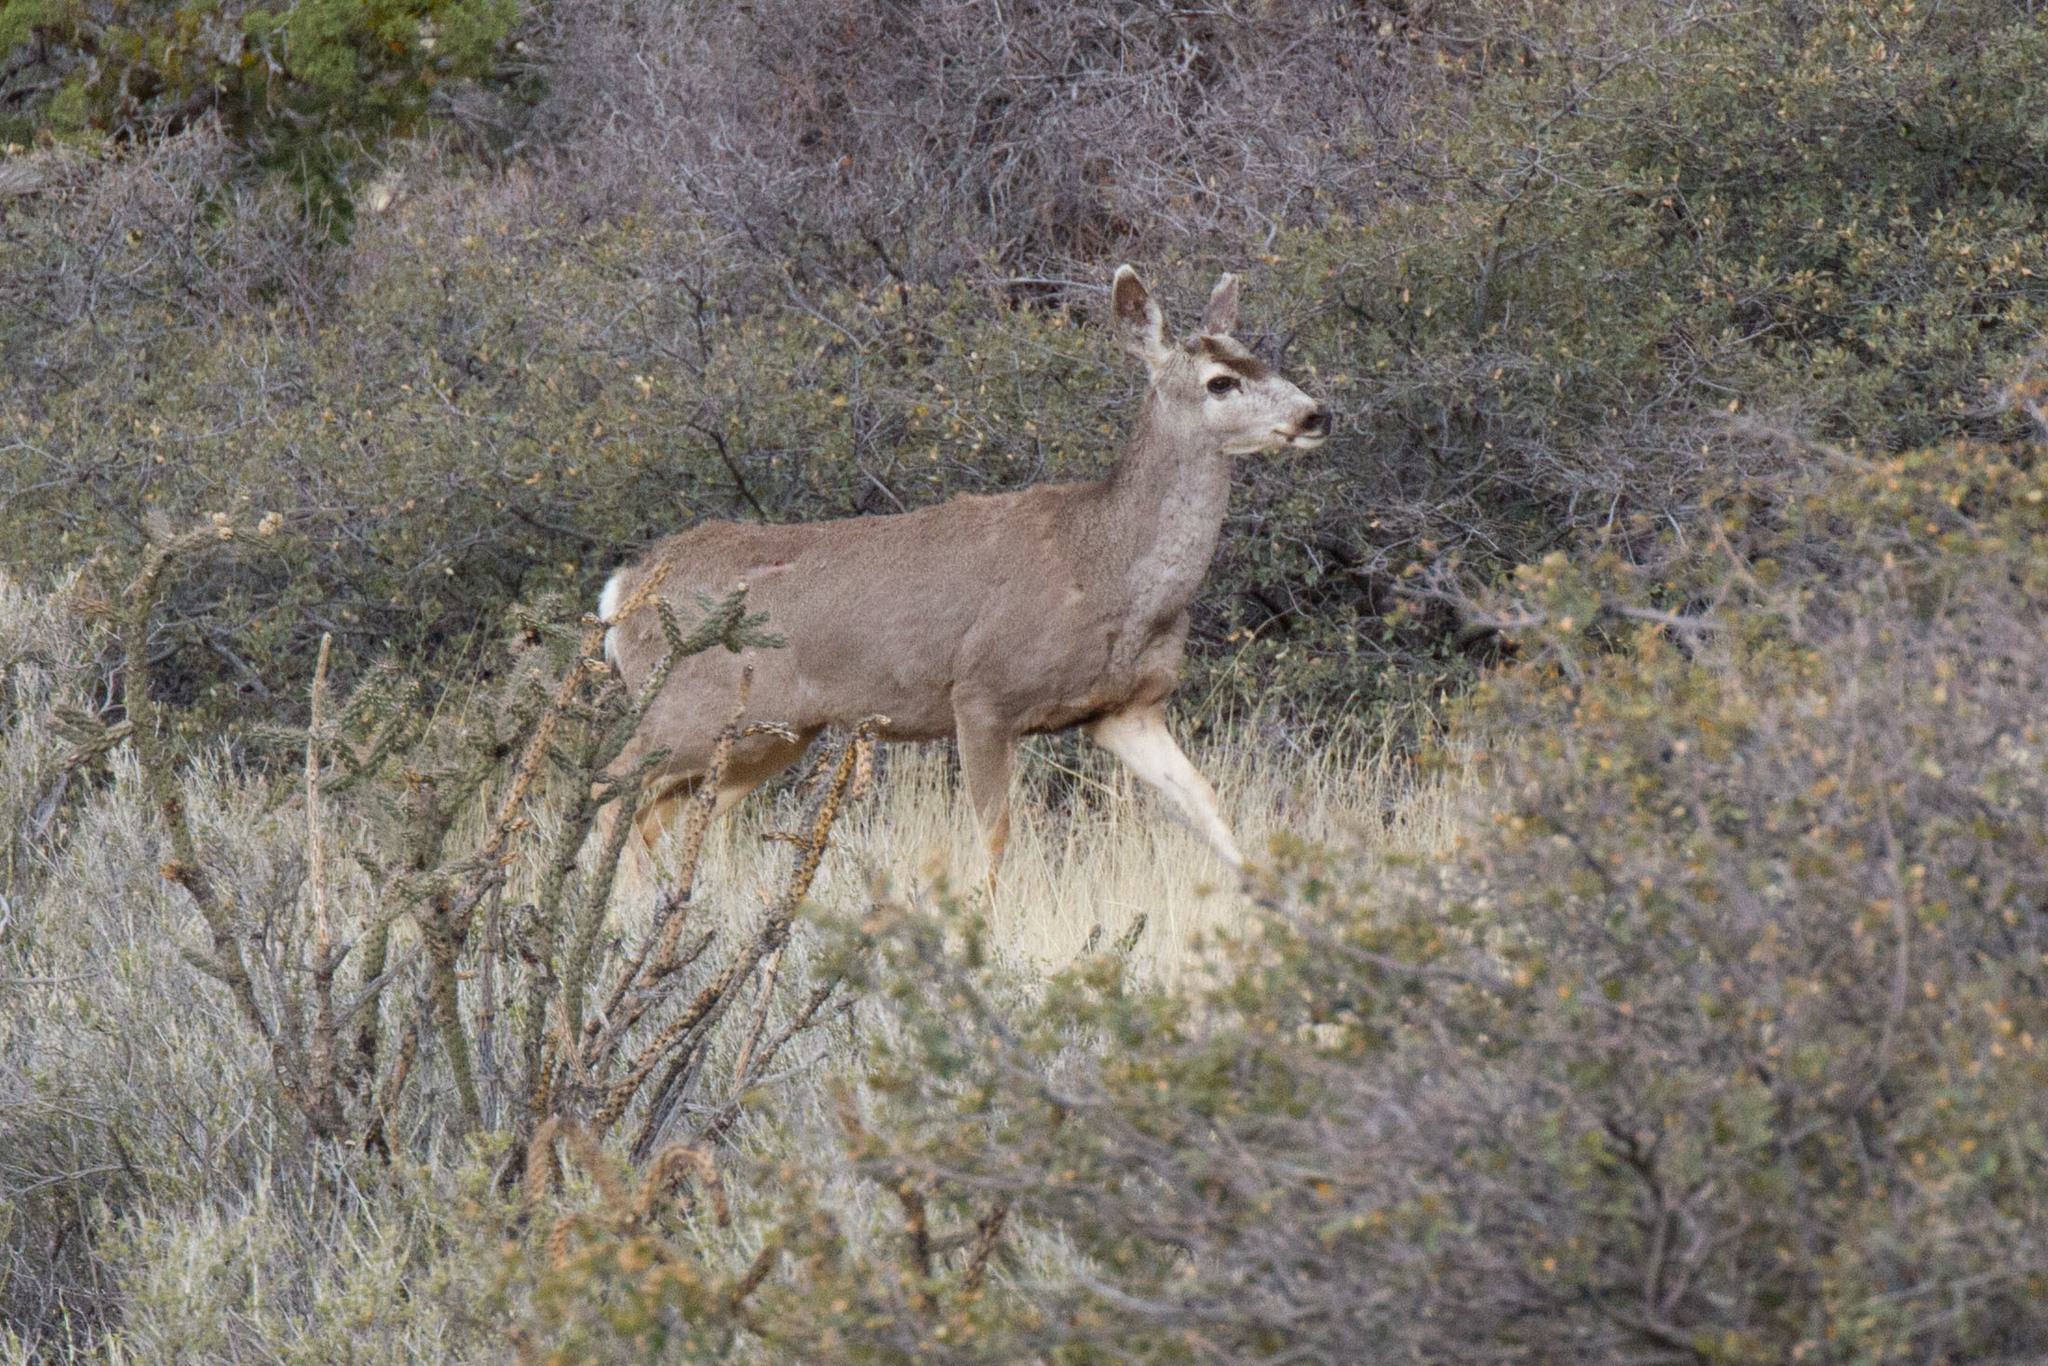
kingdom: Animalia
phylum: Chordata
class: Mammalia
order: Artiodactyla
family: Cervidae
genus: Odocoileus
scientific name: Odocoileus hemionus
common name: Mule deer
